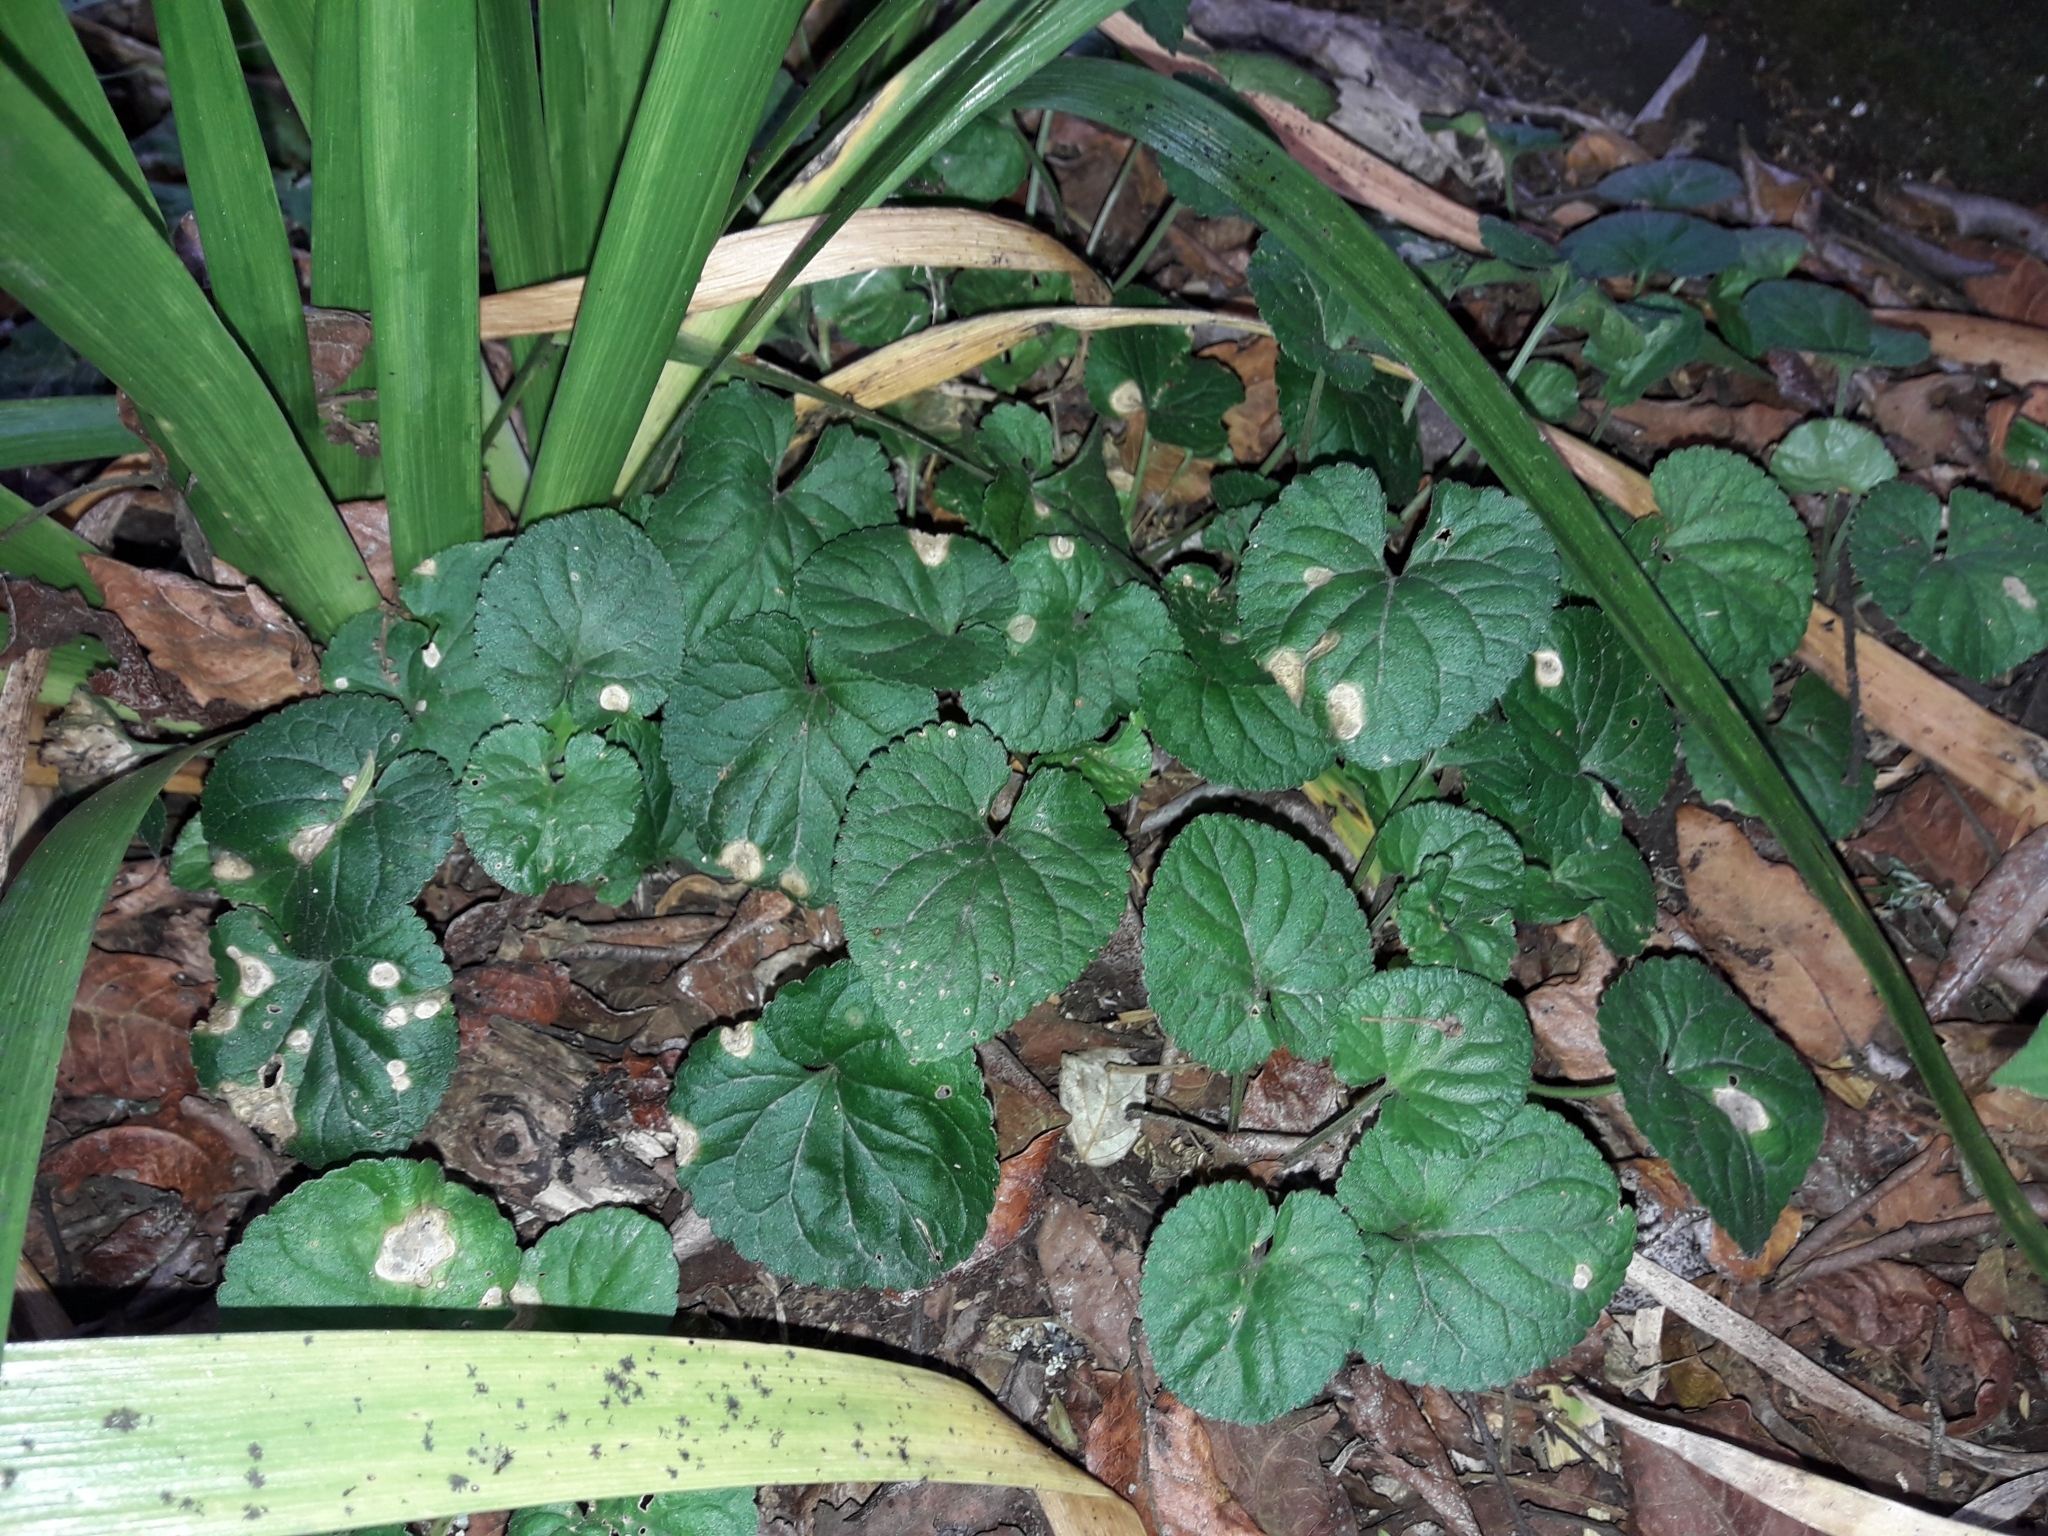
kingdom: Plantae
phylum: Tracheophyta
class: Magnoliopsida
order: Malpighiales
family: Violaceae
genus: Viola
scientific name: Viola odorata
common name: Sweet violet
